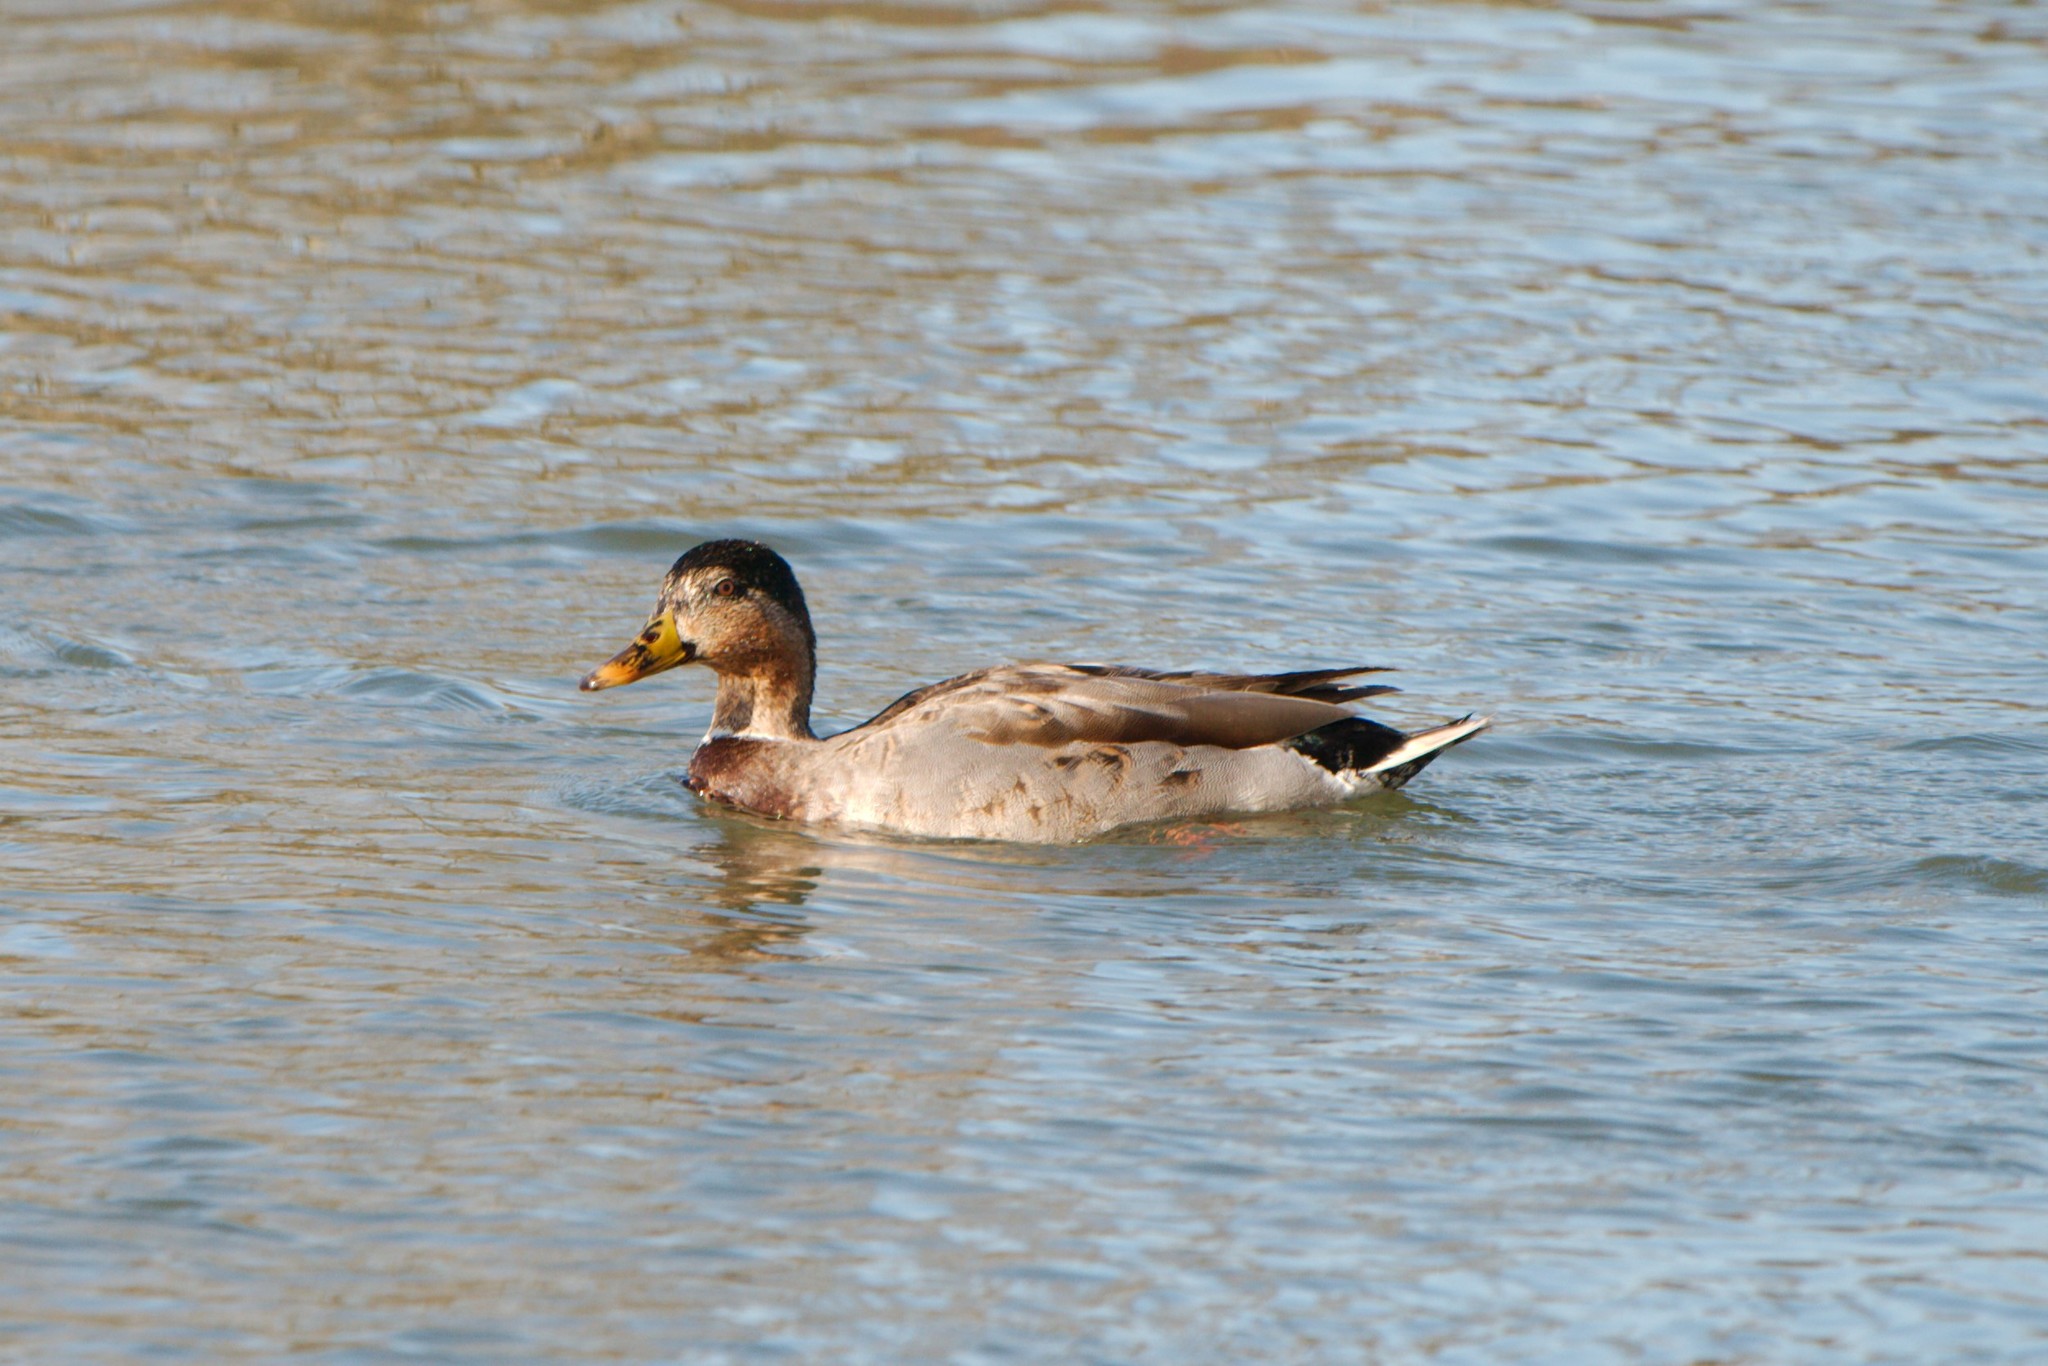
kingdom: Animalia
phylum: Chordata
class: Aves
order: Anseriformes
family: Anatidae
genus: Anas
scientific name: Anas platyrhynchos
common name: Mallard
